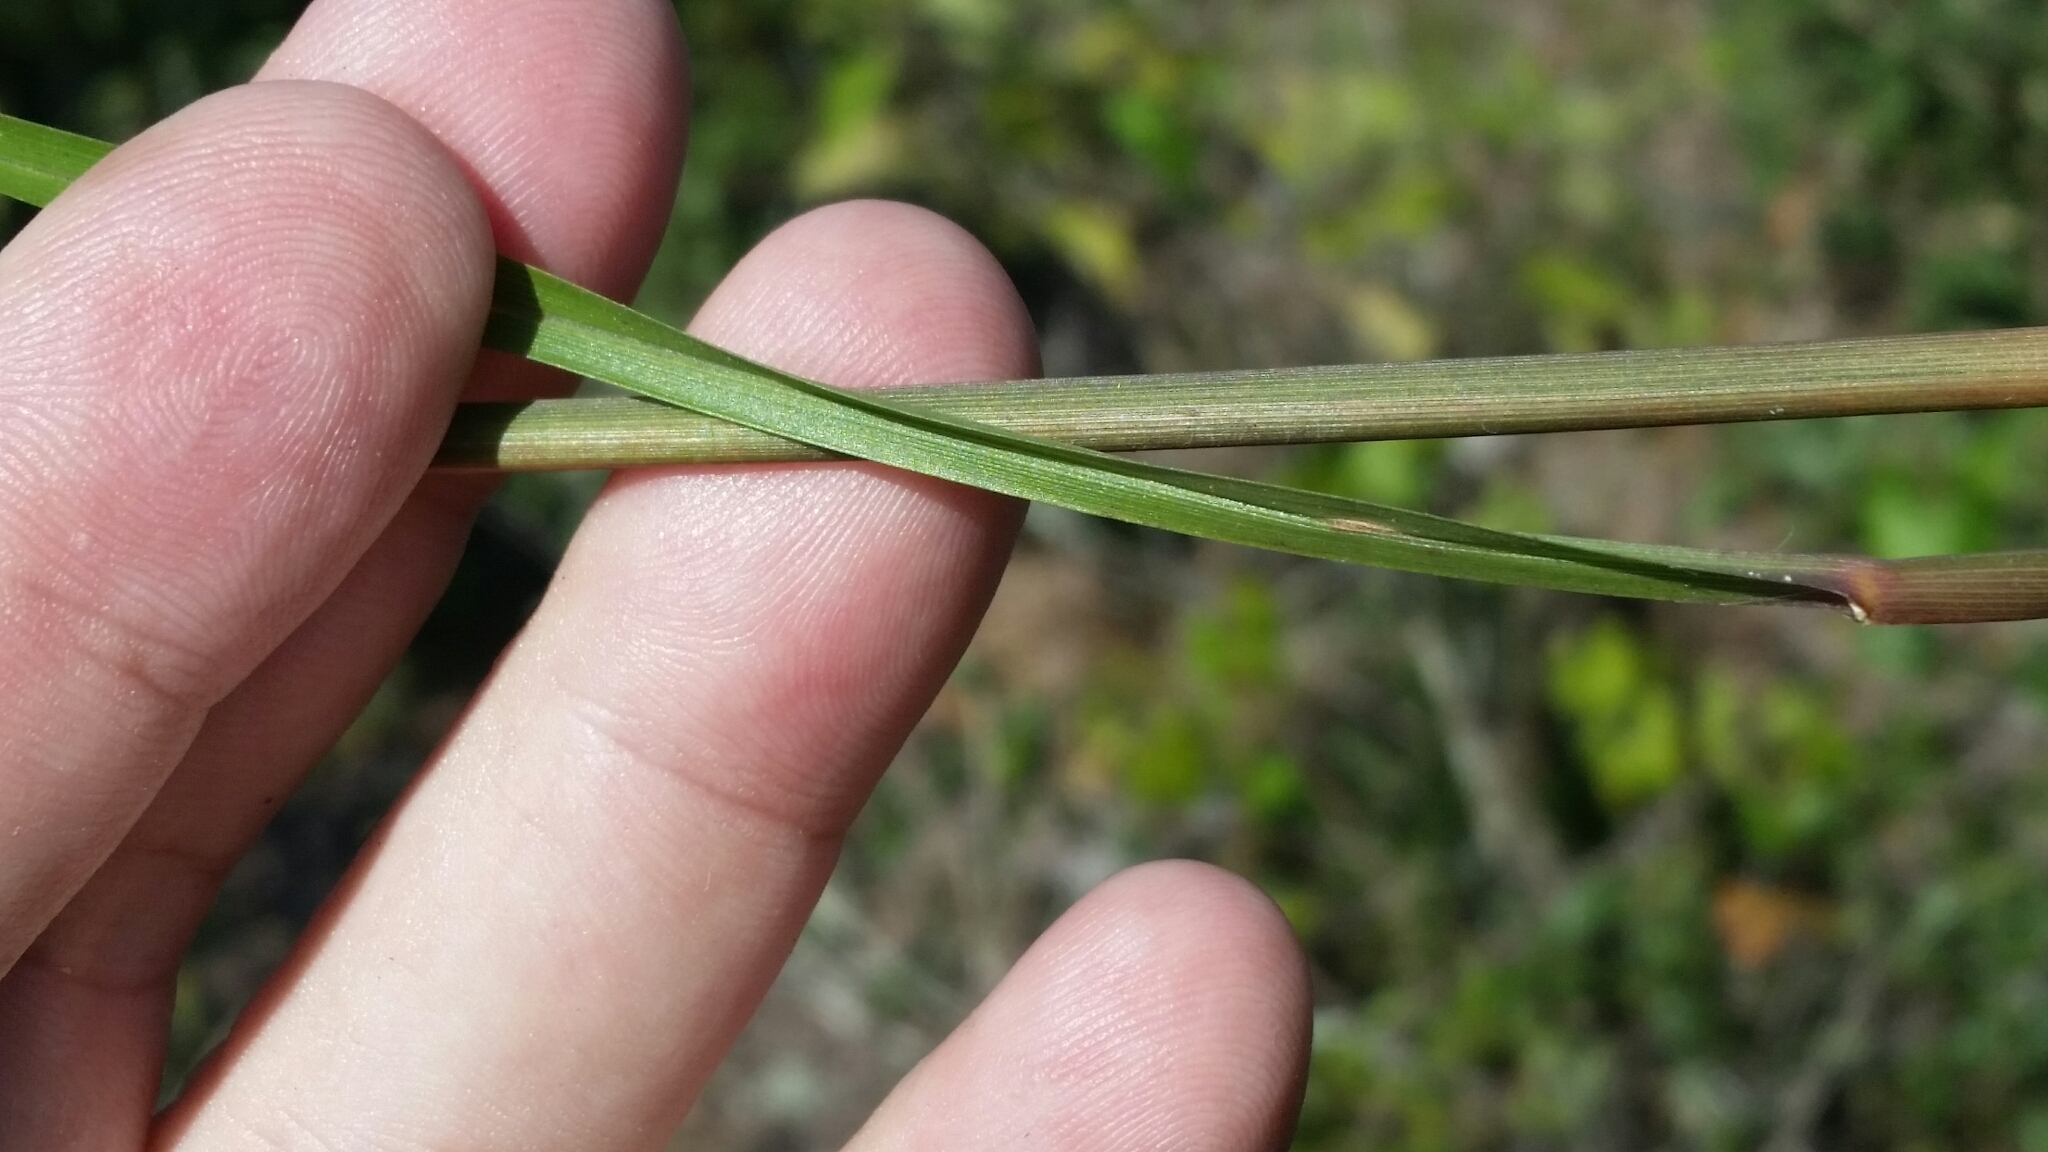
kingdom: Plantae
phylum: Tracheophyta
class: Liliopsida
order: Poales
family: Poaceae
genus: Andropogon
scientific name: Andropogon floridanus
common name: Florida bluestem
